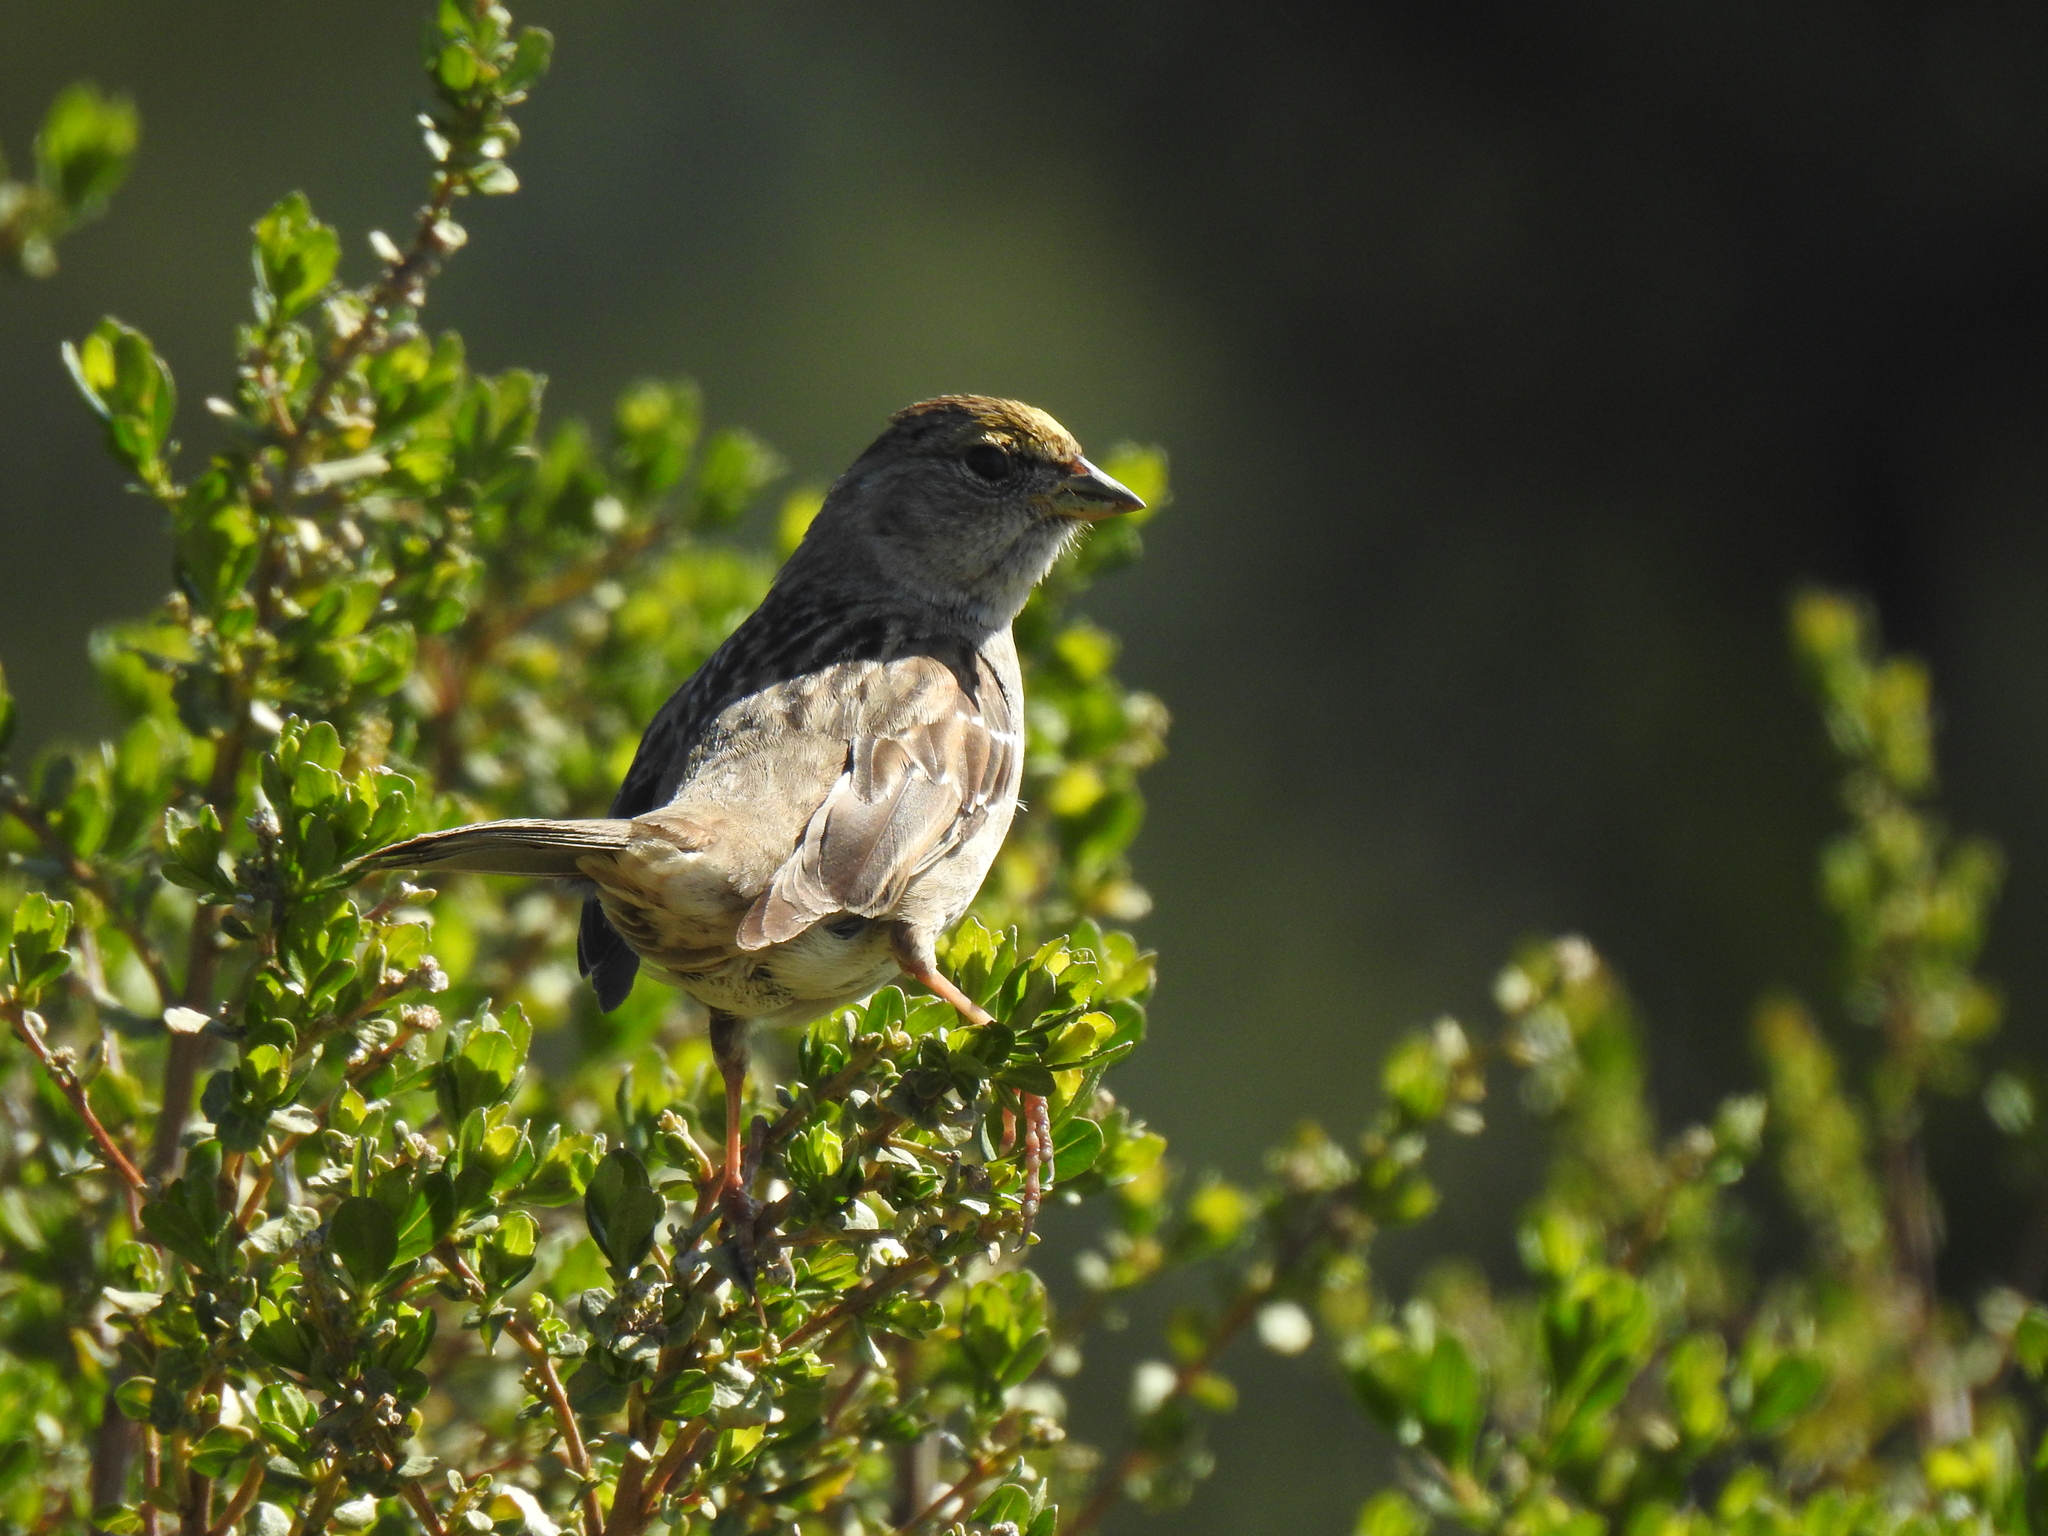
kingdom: Animalia
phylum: Chordata
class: Aves
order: Passeriformes
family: Passerellidae
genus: Zonotrichia
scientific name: Zonotrichia atricapilla
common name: Golden-crowned sparrow
